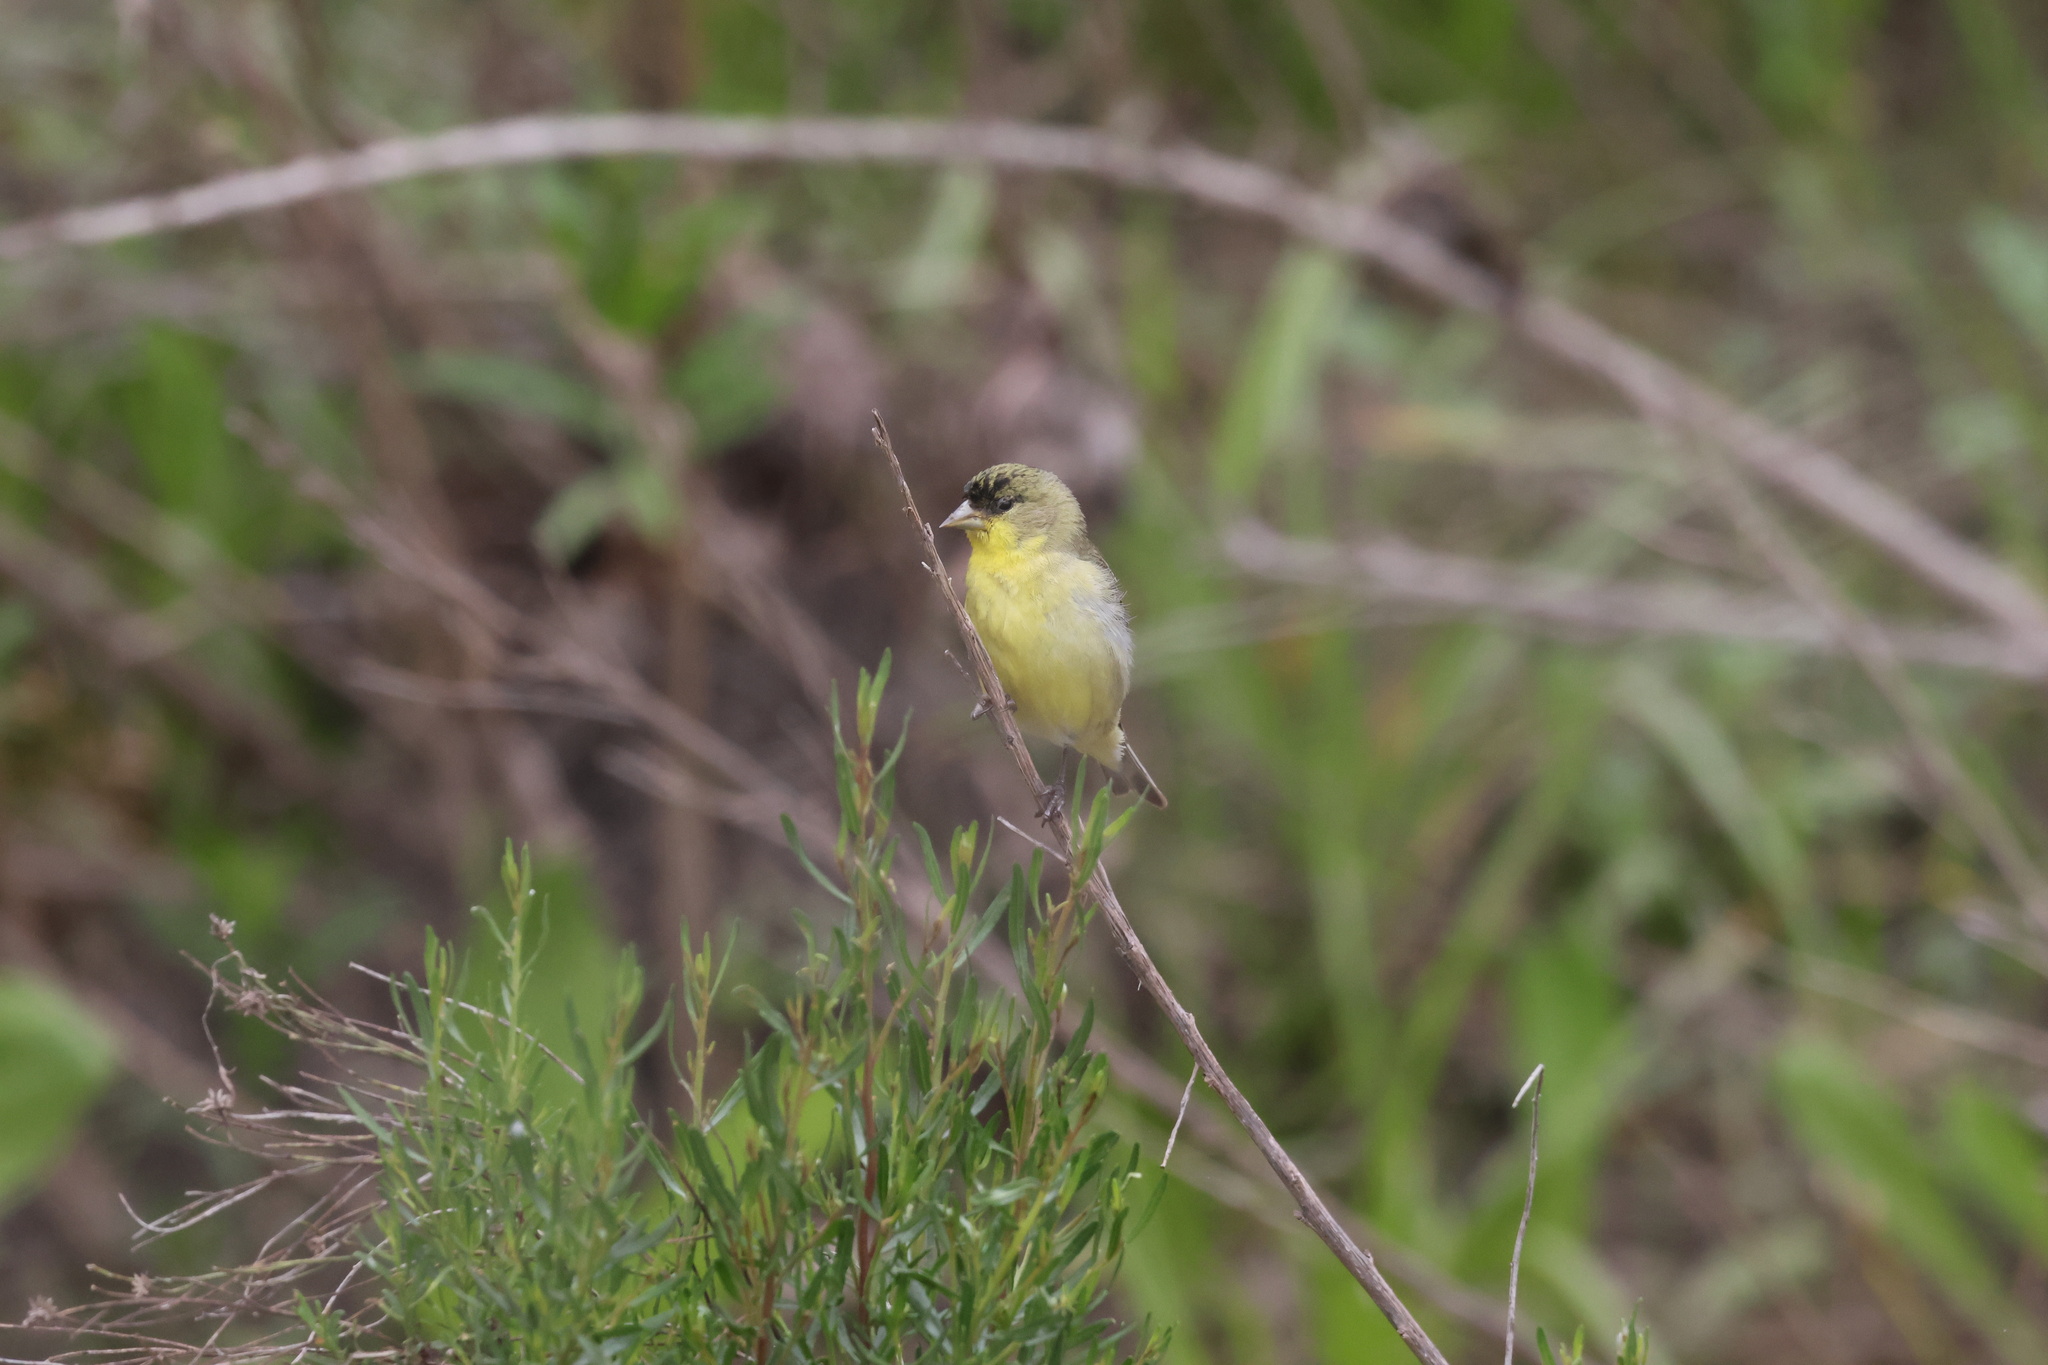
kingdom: Animalia
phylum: Chordata
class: Aves
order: Passeriformes
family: Fringillidae
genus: Spinus
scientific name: Spinus psaltria
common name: Lesser goldfinch
